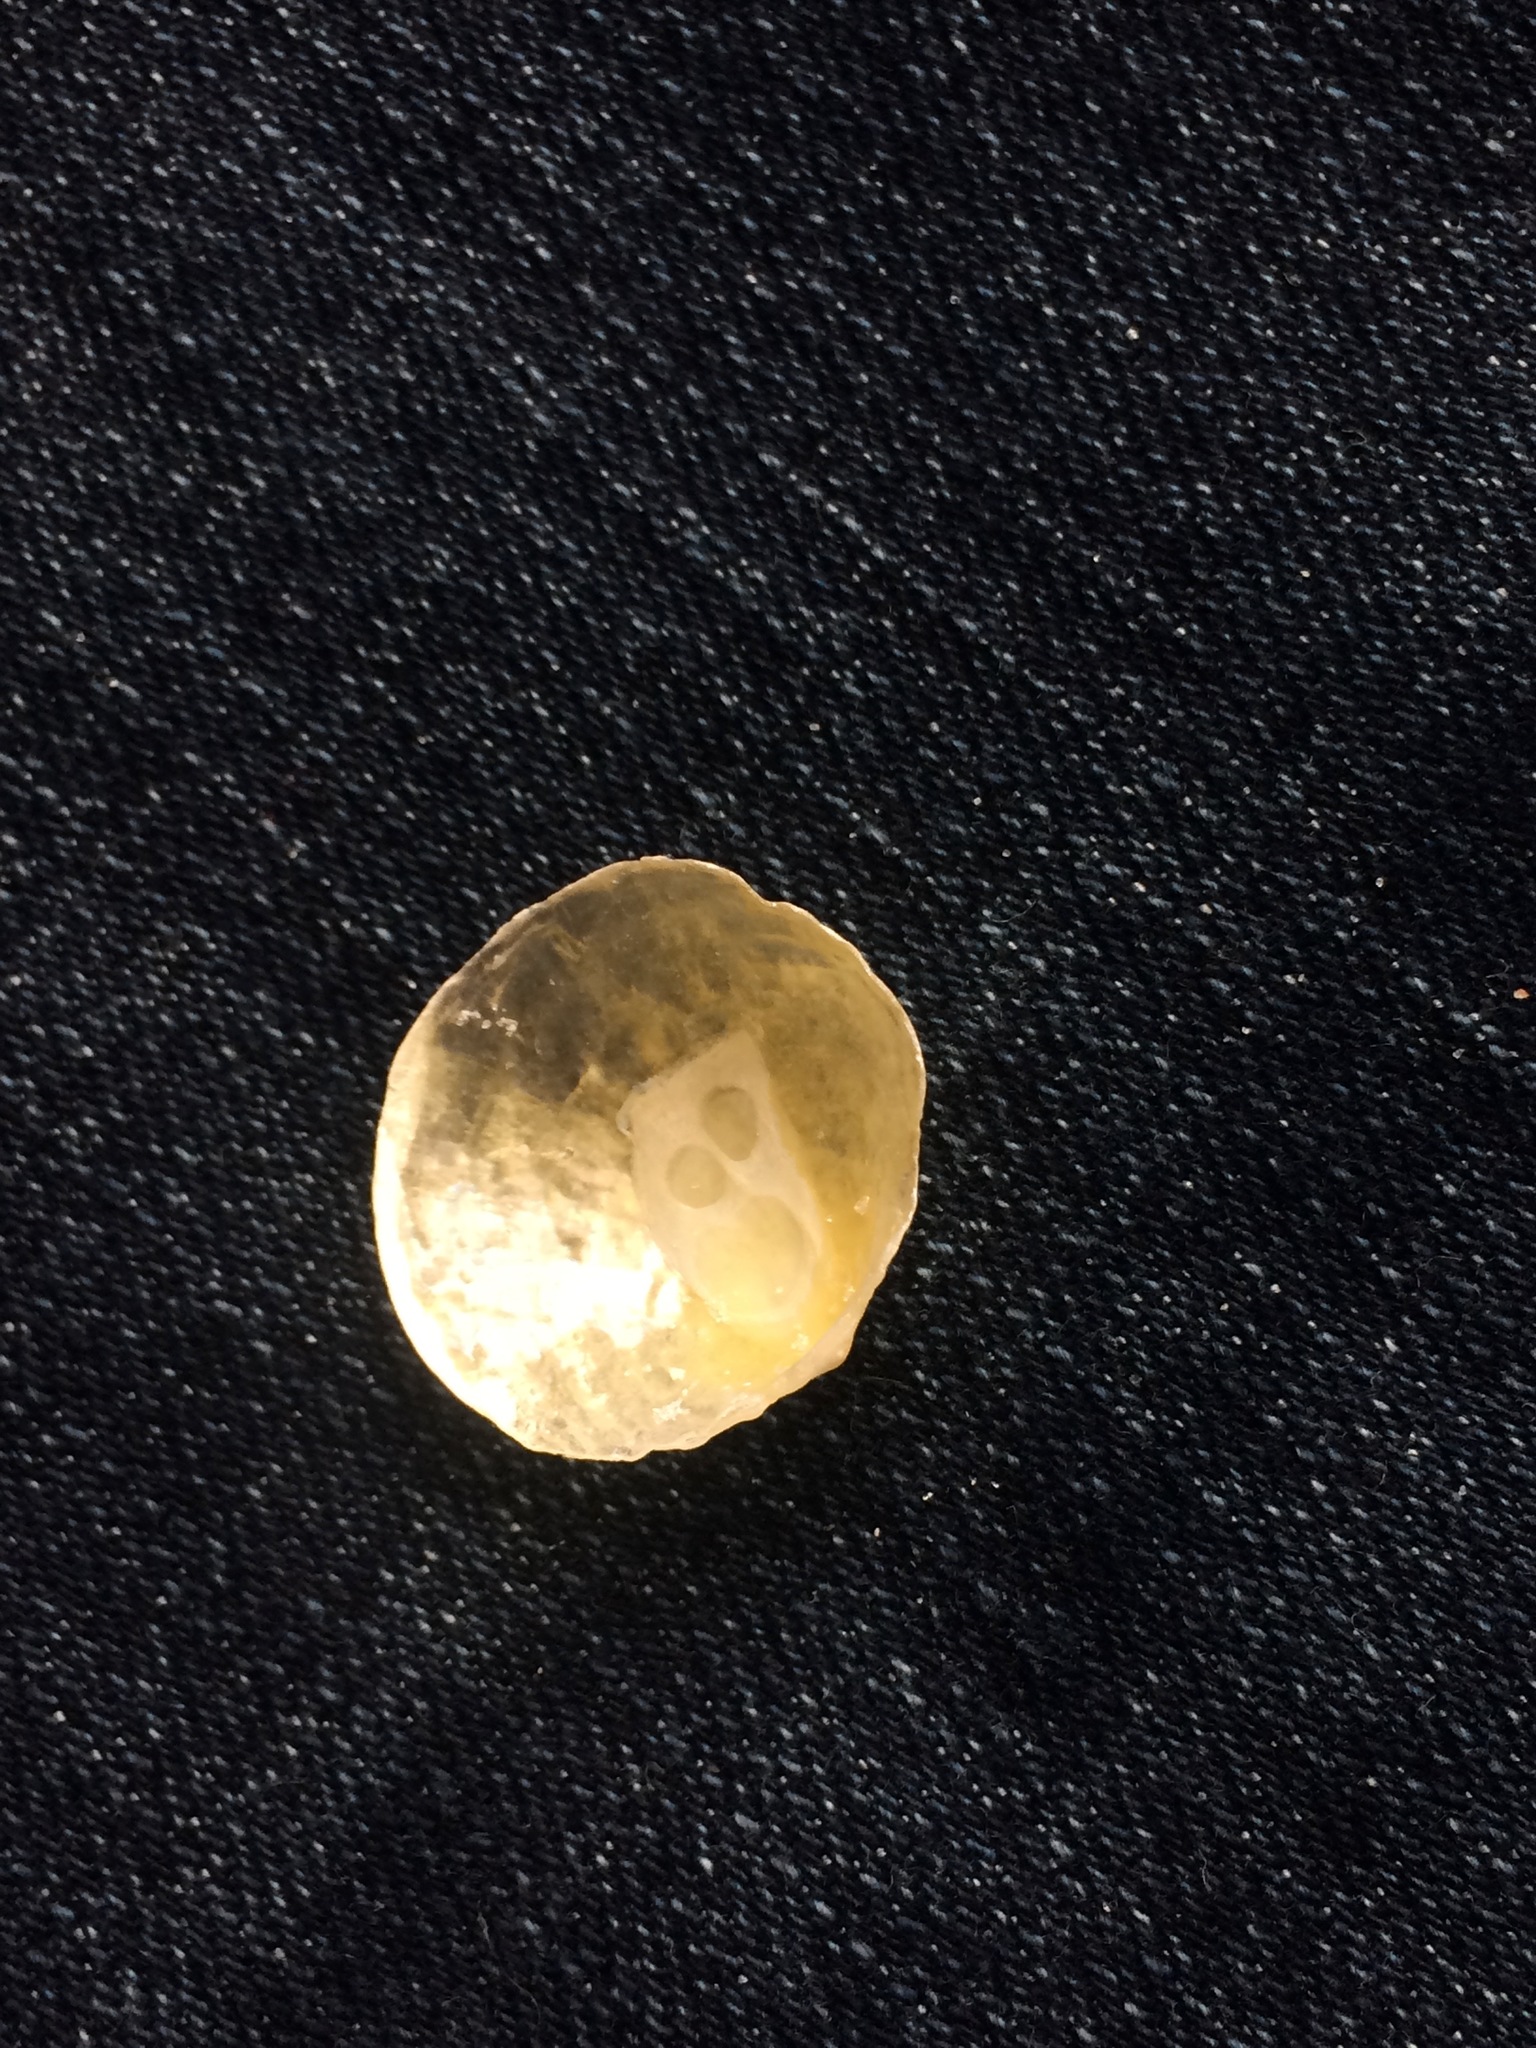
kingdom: Animalia
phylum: Mollusca
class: Bivalvia
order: Pectinida
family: Anomiidae
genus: Anomia
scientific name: Anomia simplex
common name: Common jingle shell
